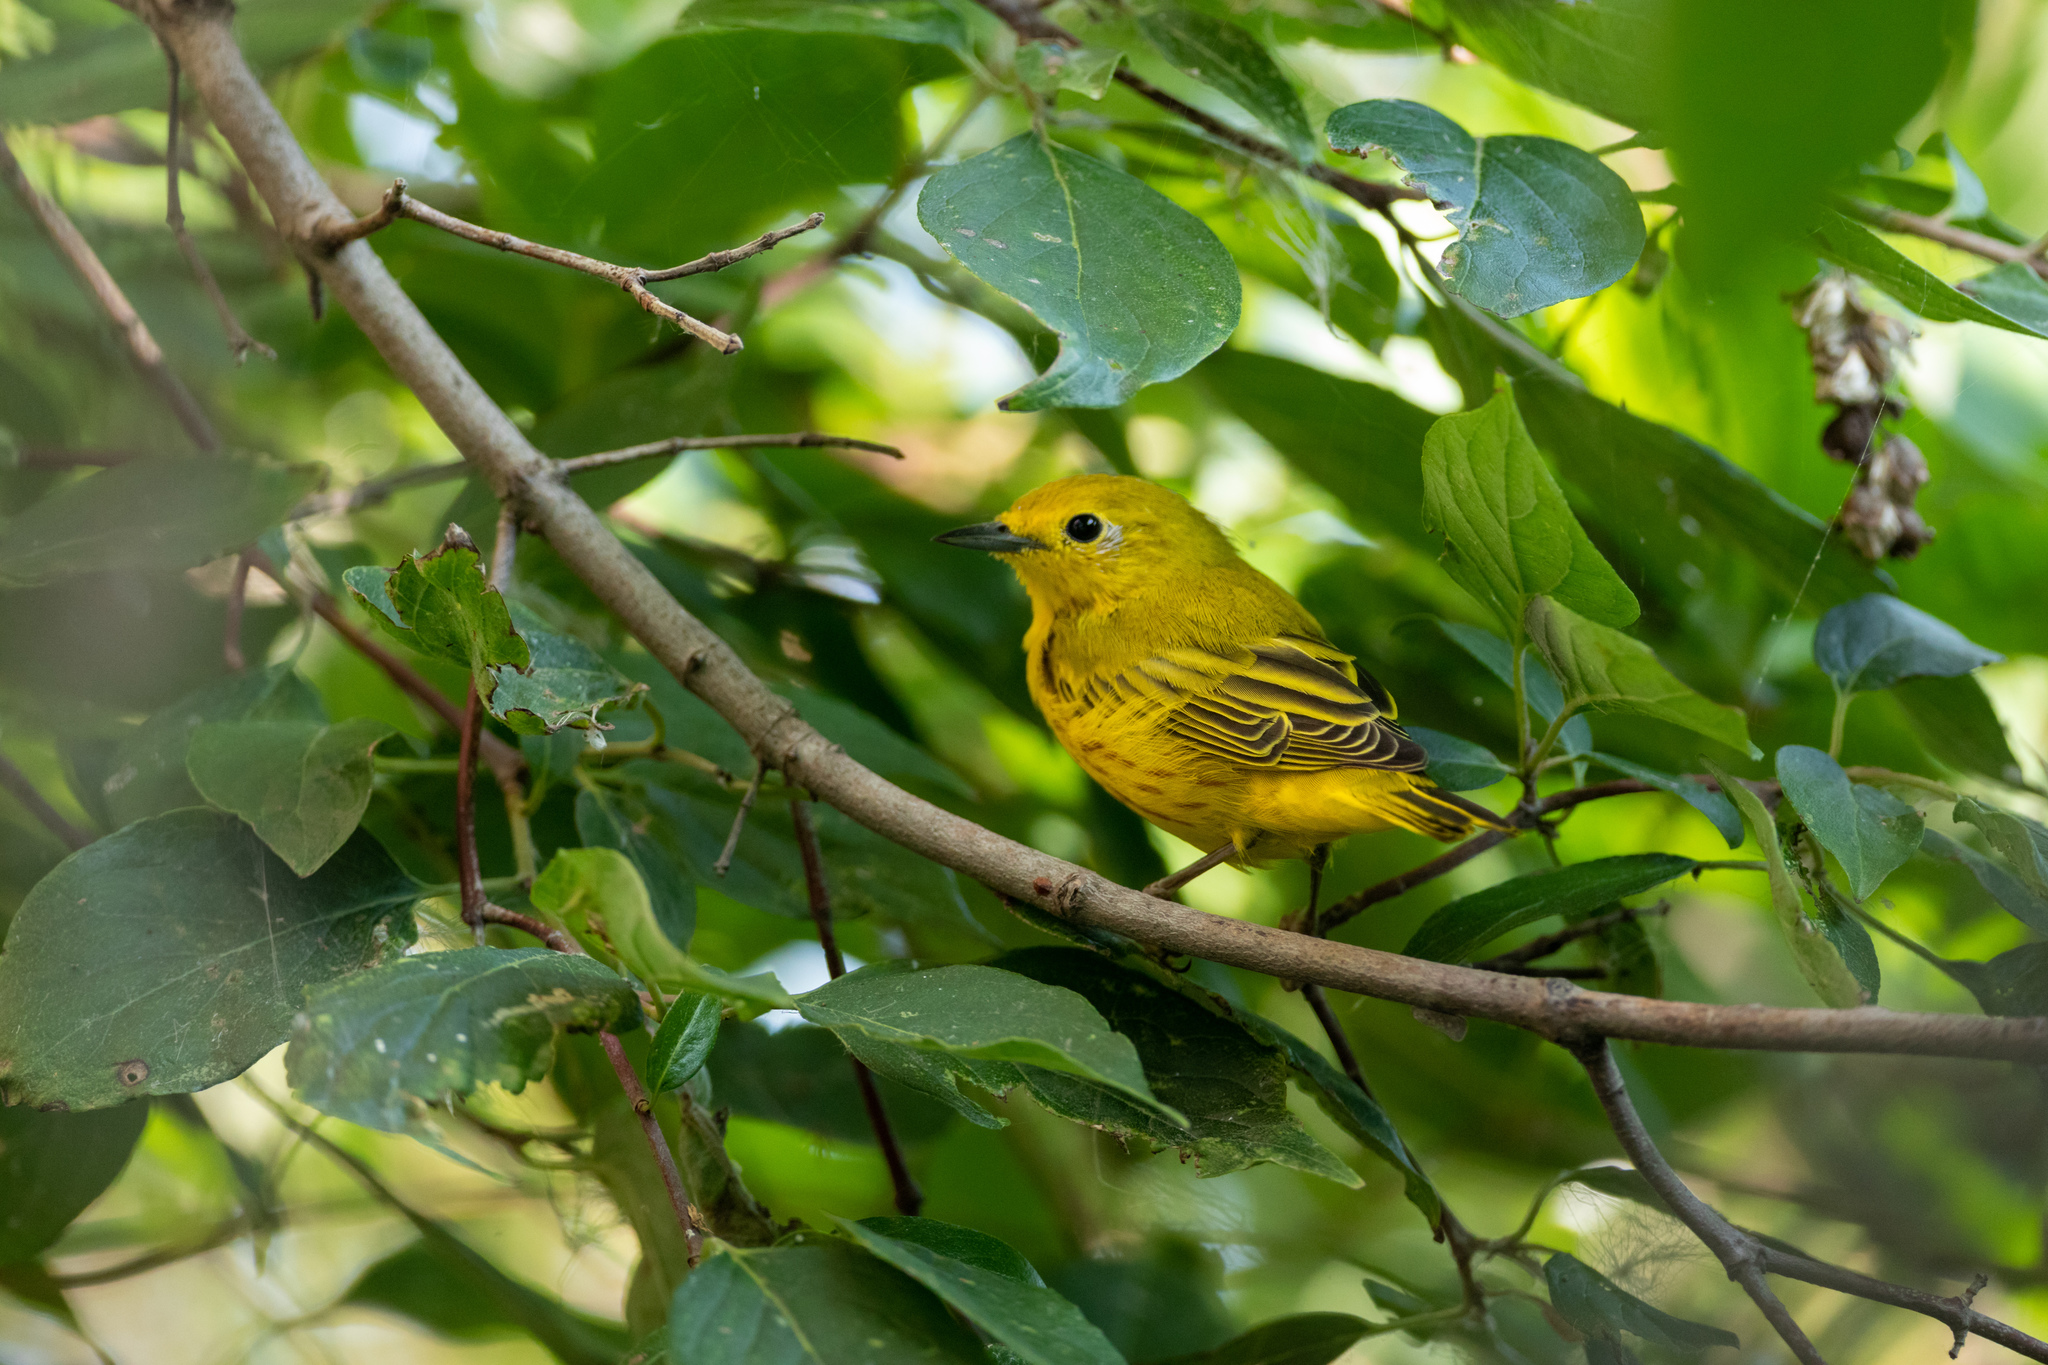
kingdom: Animalia
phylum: Chordata
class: Aves
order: Passeriformes
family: Parulidae
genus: Setophaga
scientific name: Setophaga petechia
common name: Yellow warbler
